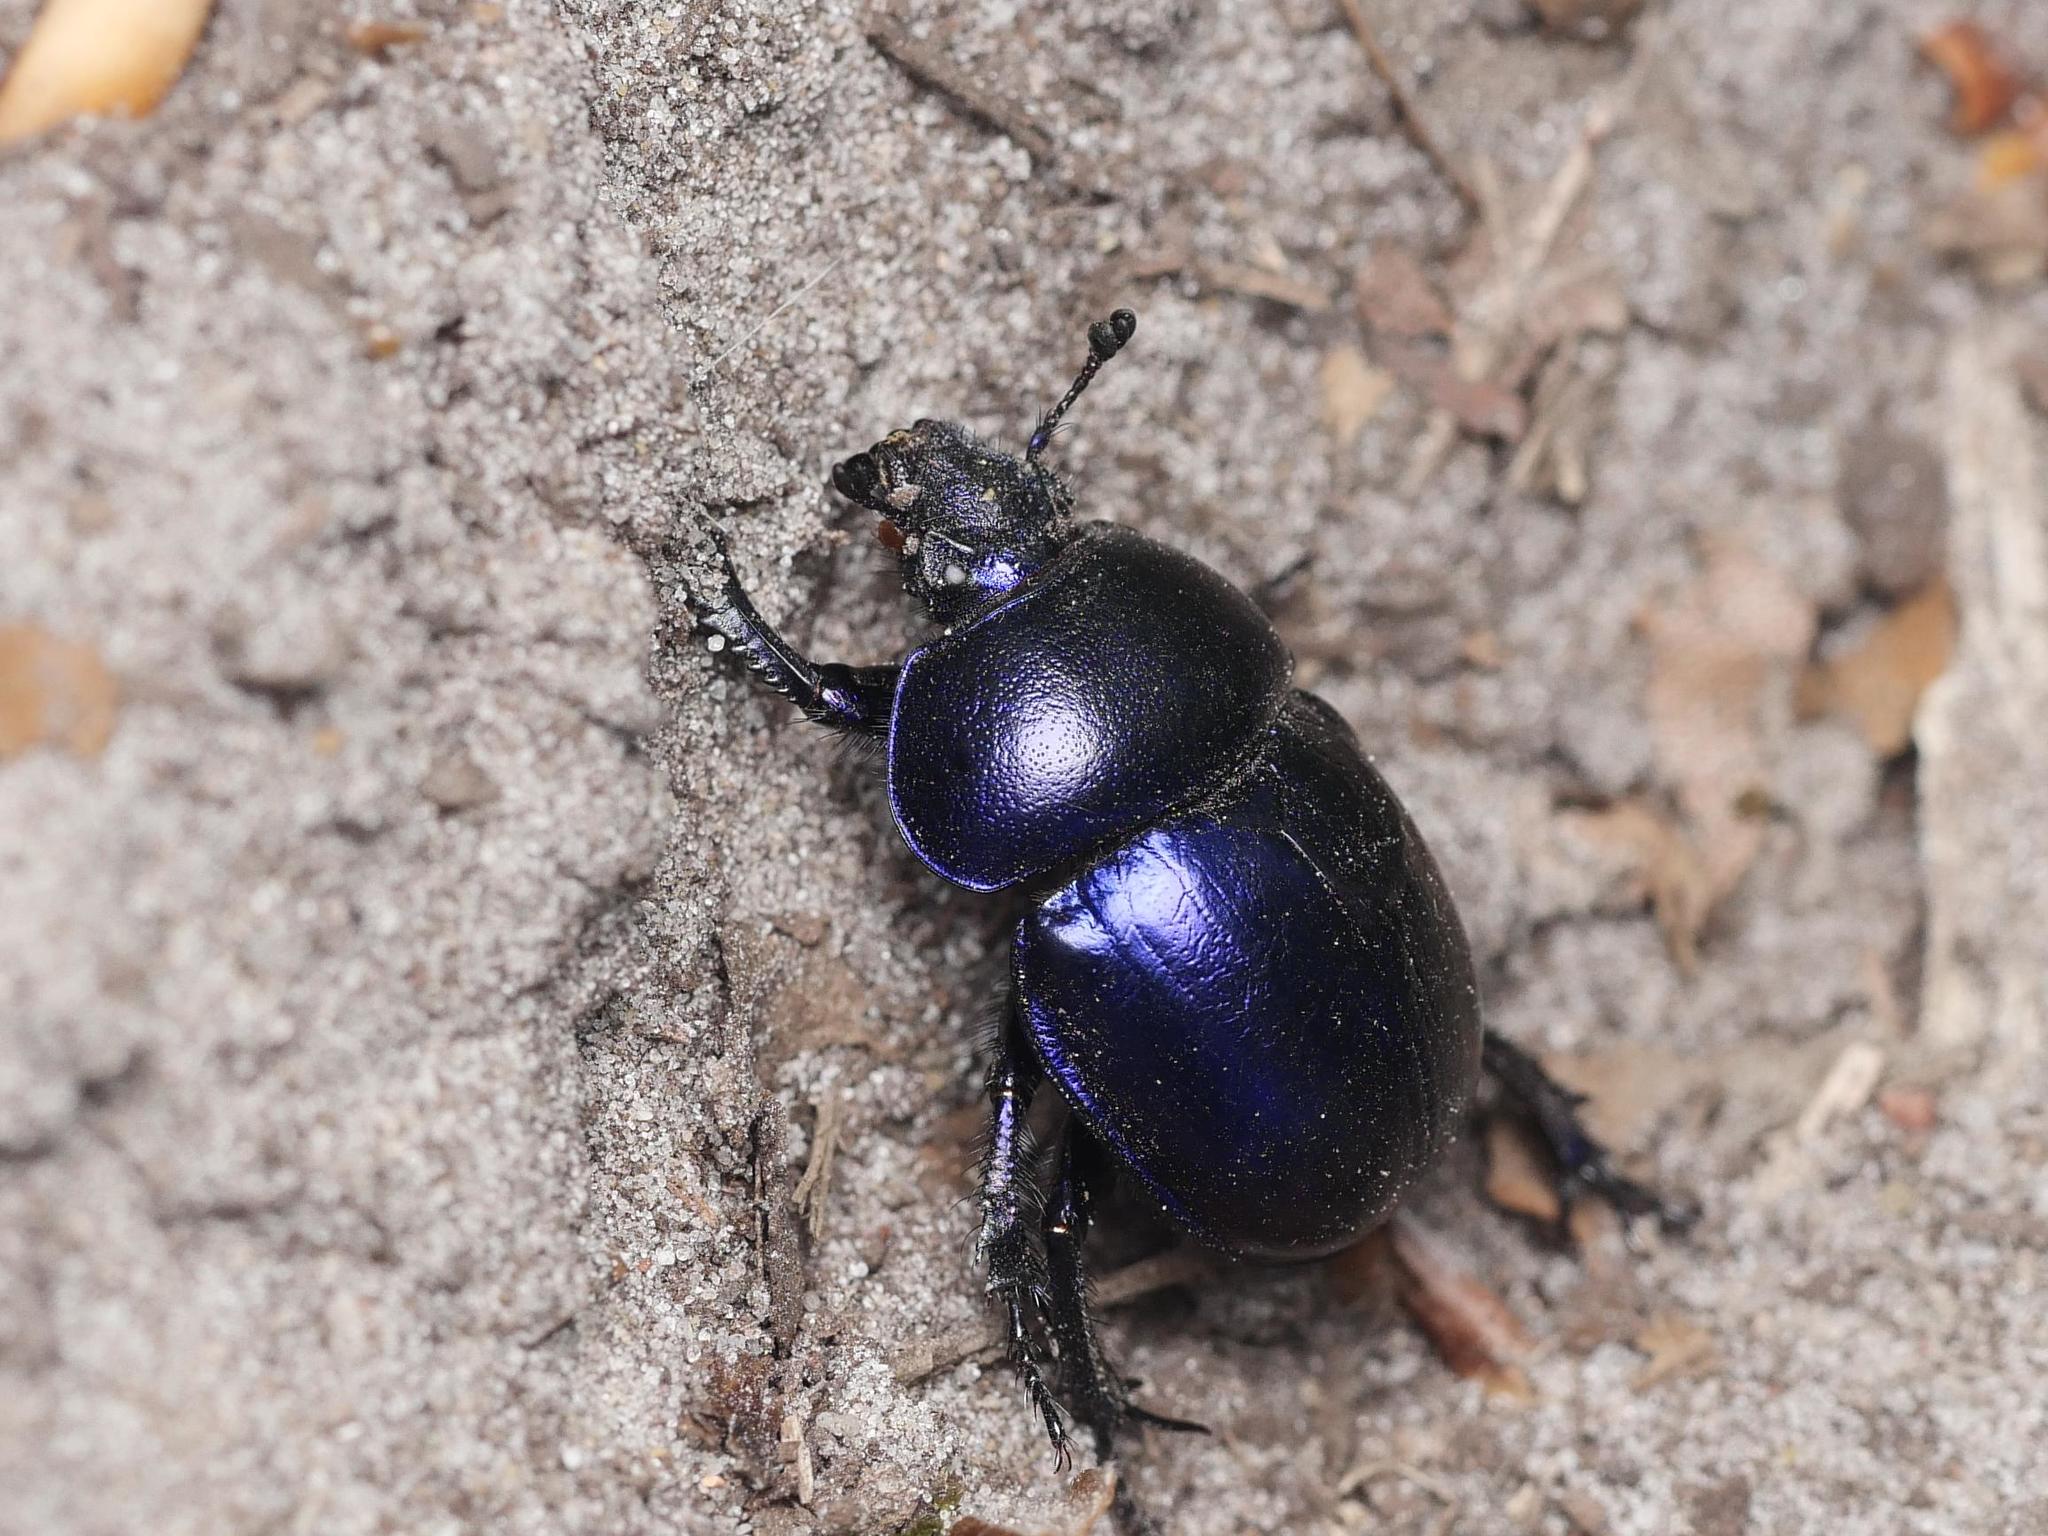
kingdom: Animalia
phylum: Arthropoda
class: Insecta
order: Coleoptera
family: Geotrupidae
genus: Trypocopris
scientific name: Trypocopris vernalis
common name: Spring dumbledor
